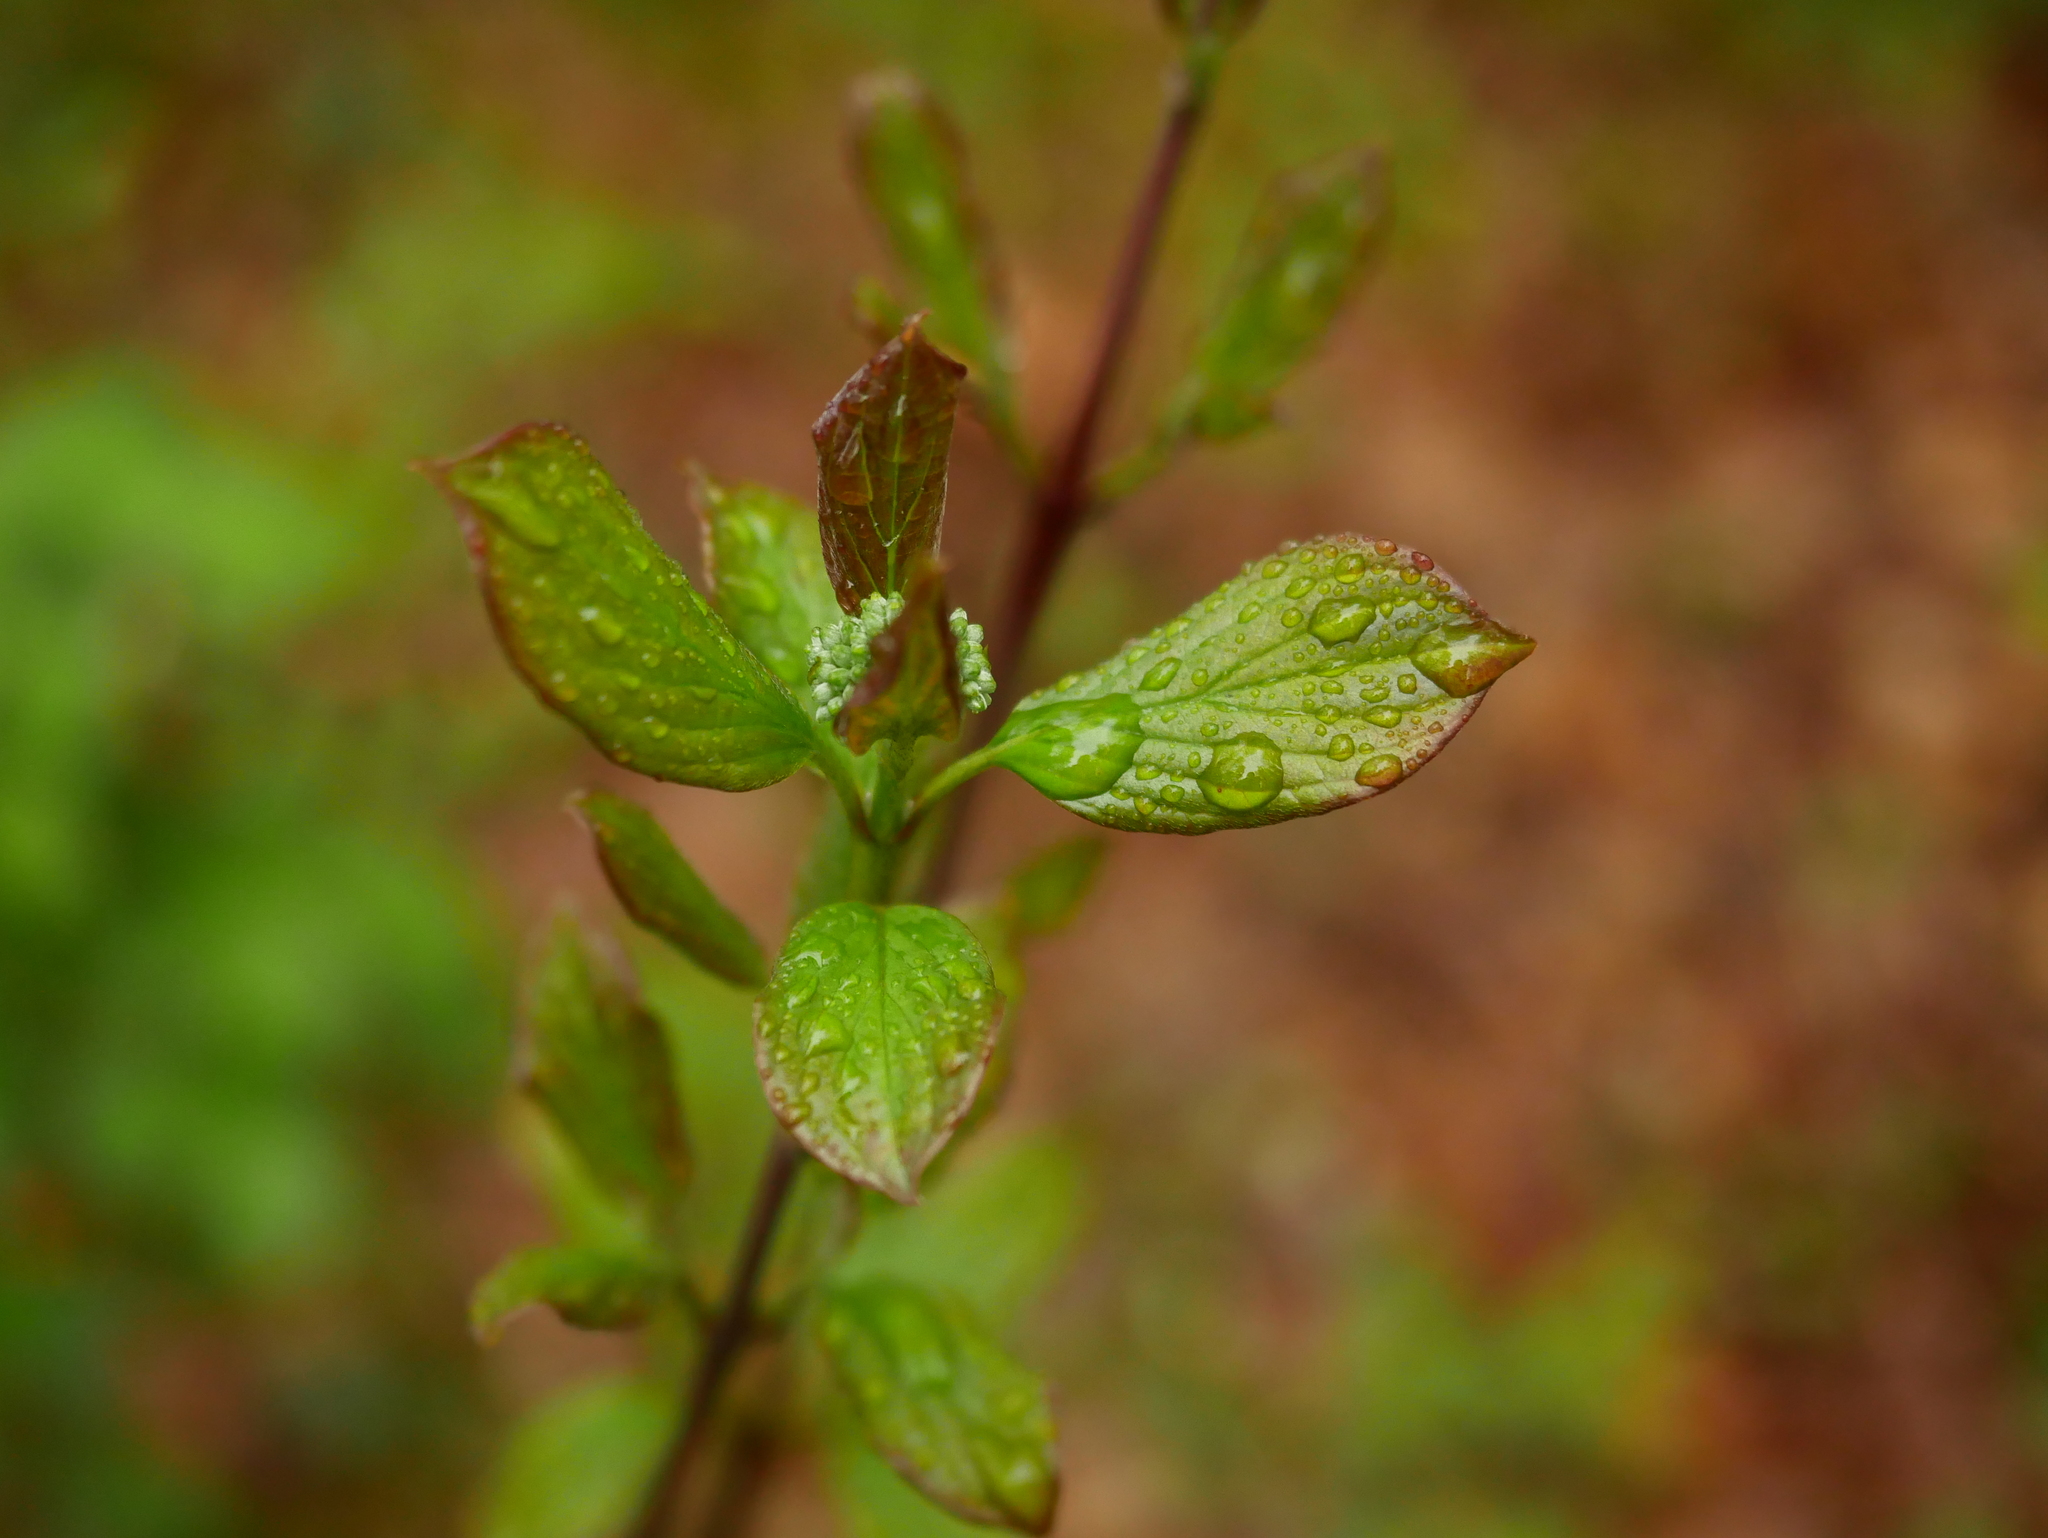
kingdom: Plantae
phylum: Tracheophyta
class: Magnoliopsida
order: Cornales
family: Cornaceae
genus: Cornus
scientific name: Cornus sanguinea
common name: Dogwood
